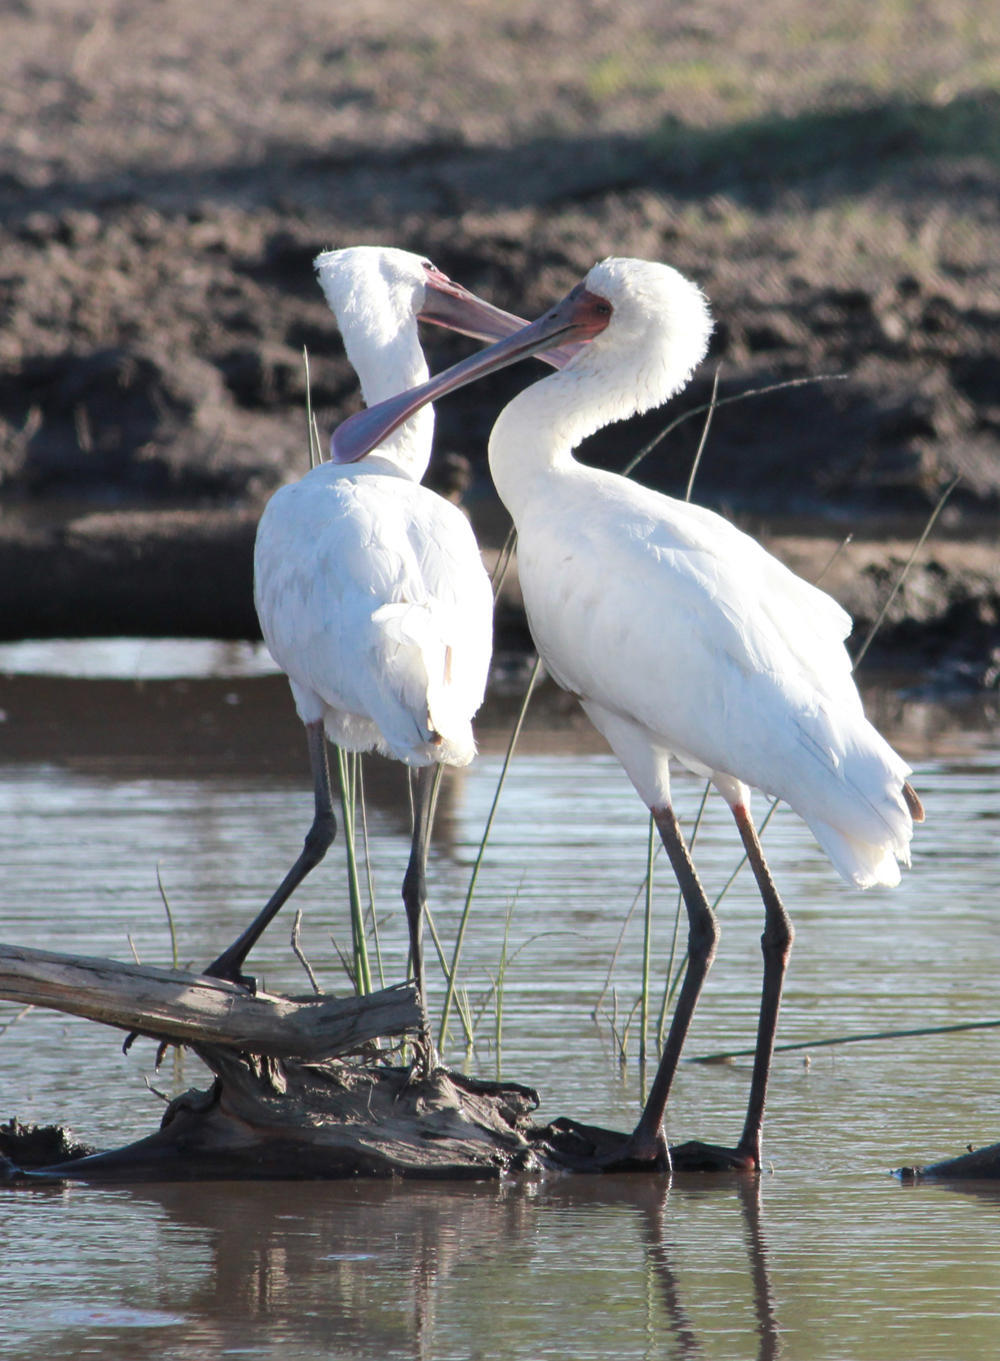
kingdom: Animalia
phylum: Chordata
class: Aves
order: Pelecaniformes
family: Threskiornithidae
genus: Platalea
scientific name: Platalea alba
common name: African spoonbill
